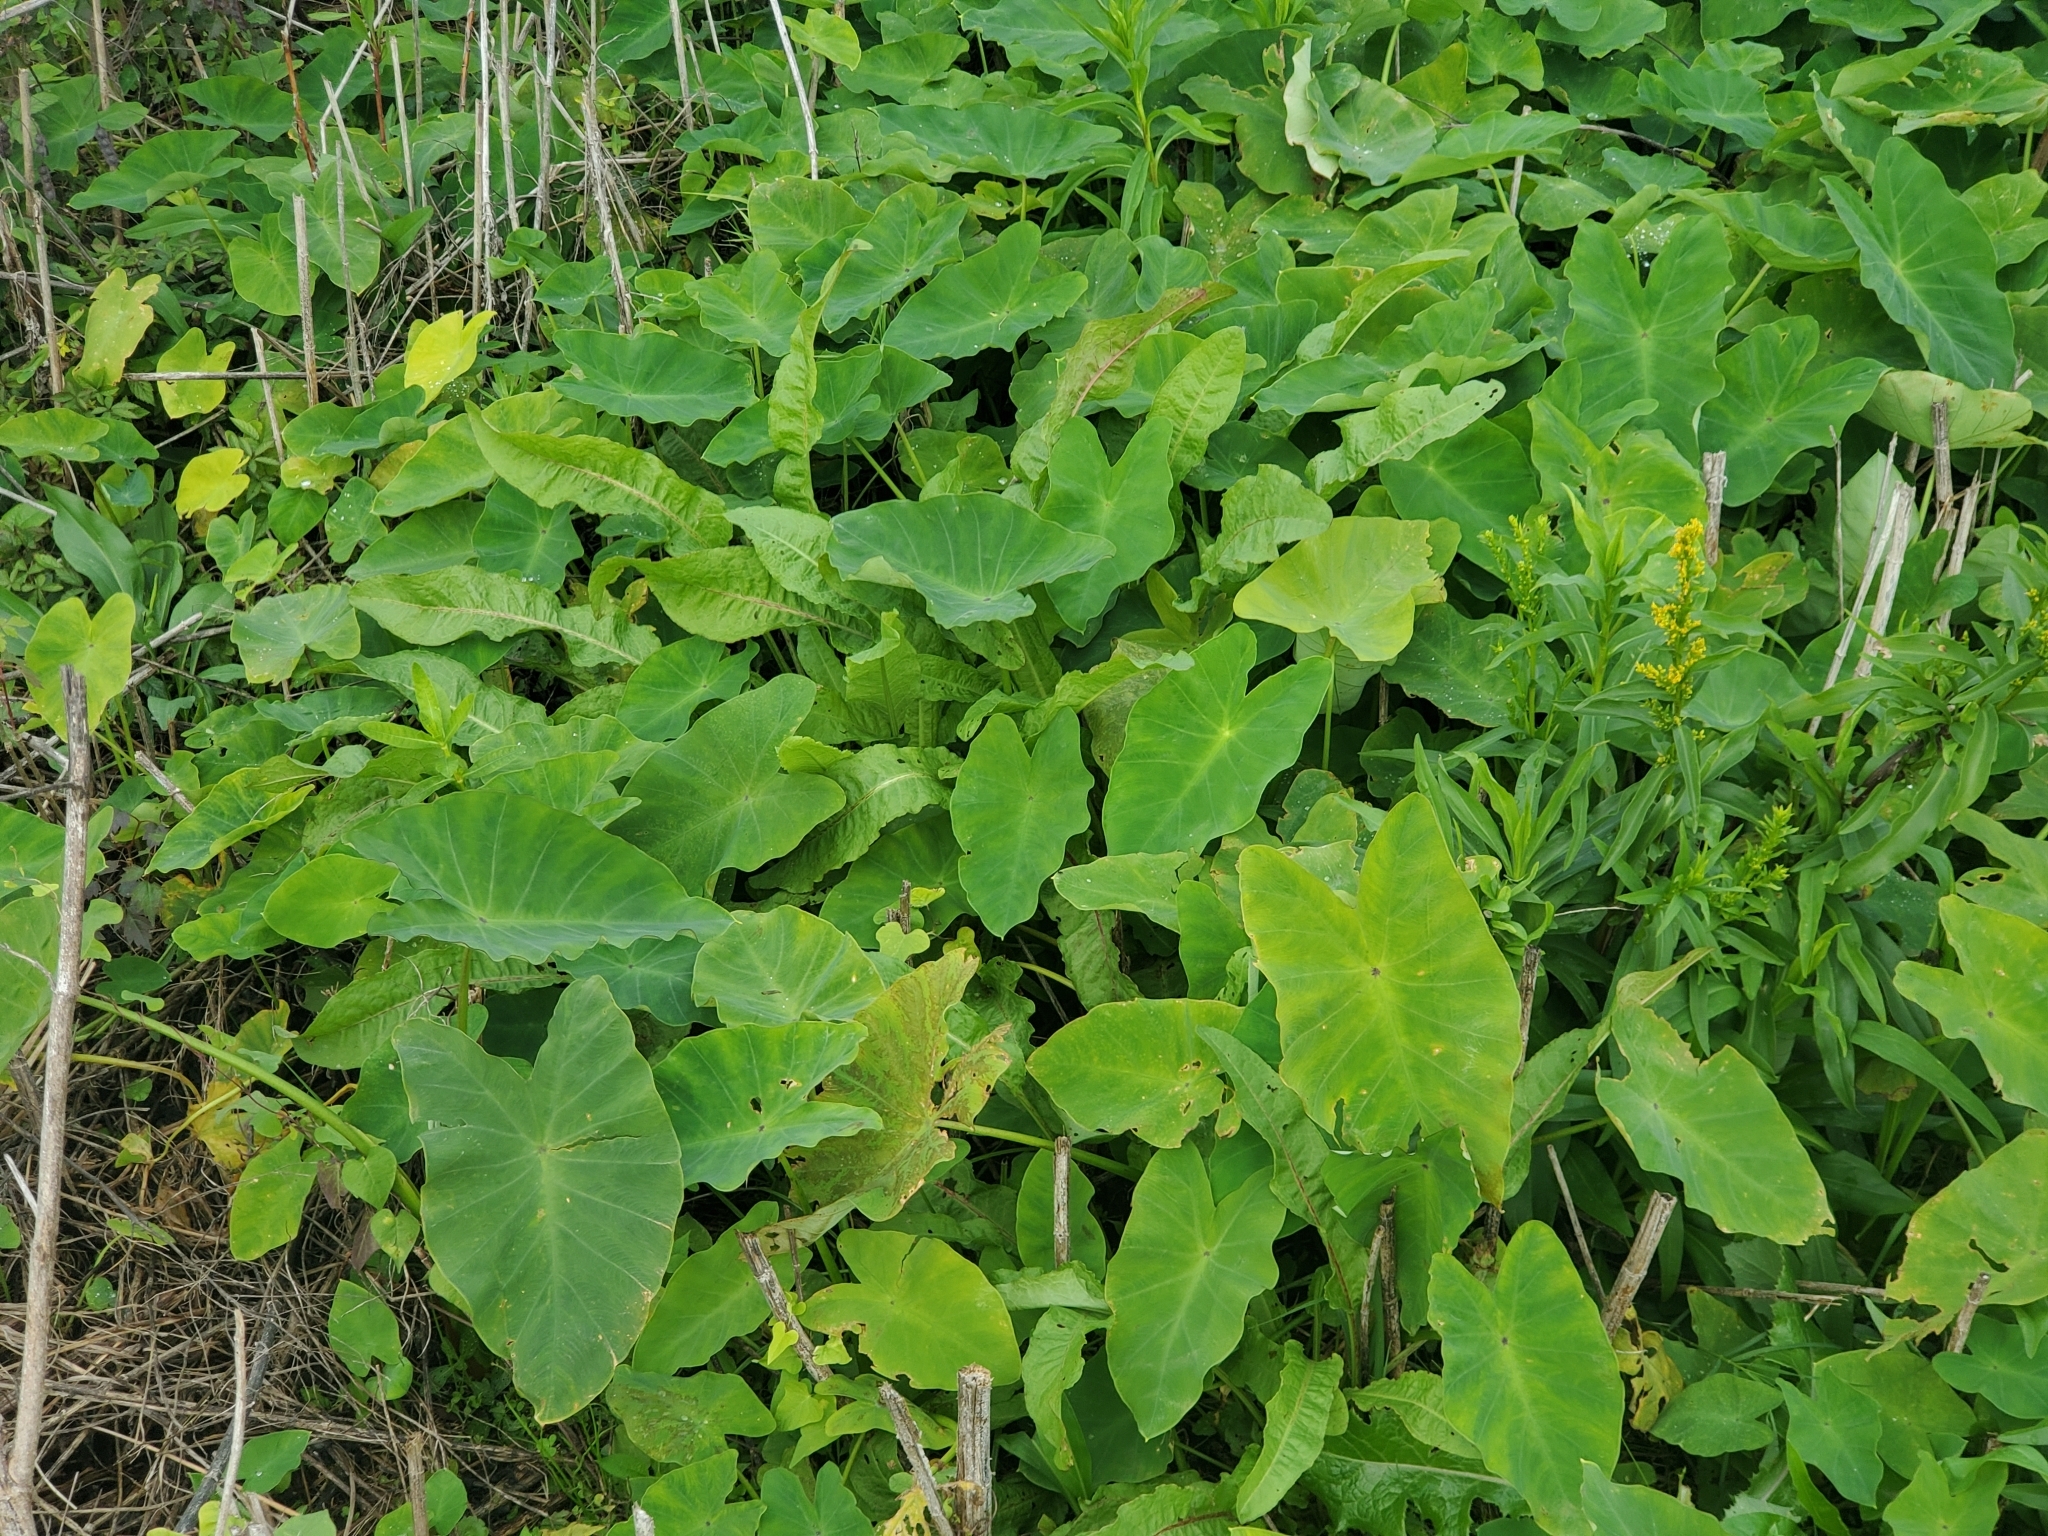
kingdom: Plantae
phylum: Tracheophyta
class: Liliopsida
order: Alismatales
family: Araceae
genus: Colocasia
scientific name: Colocasia esculenta
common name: Taro
